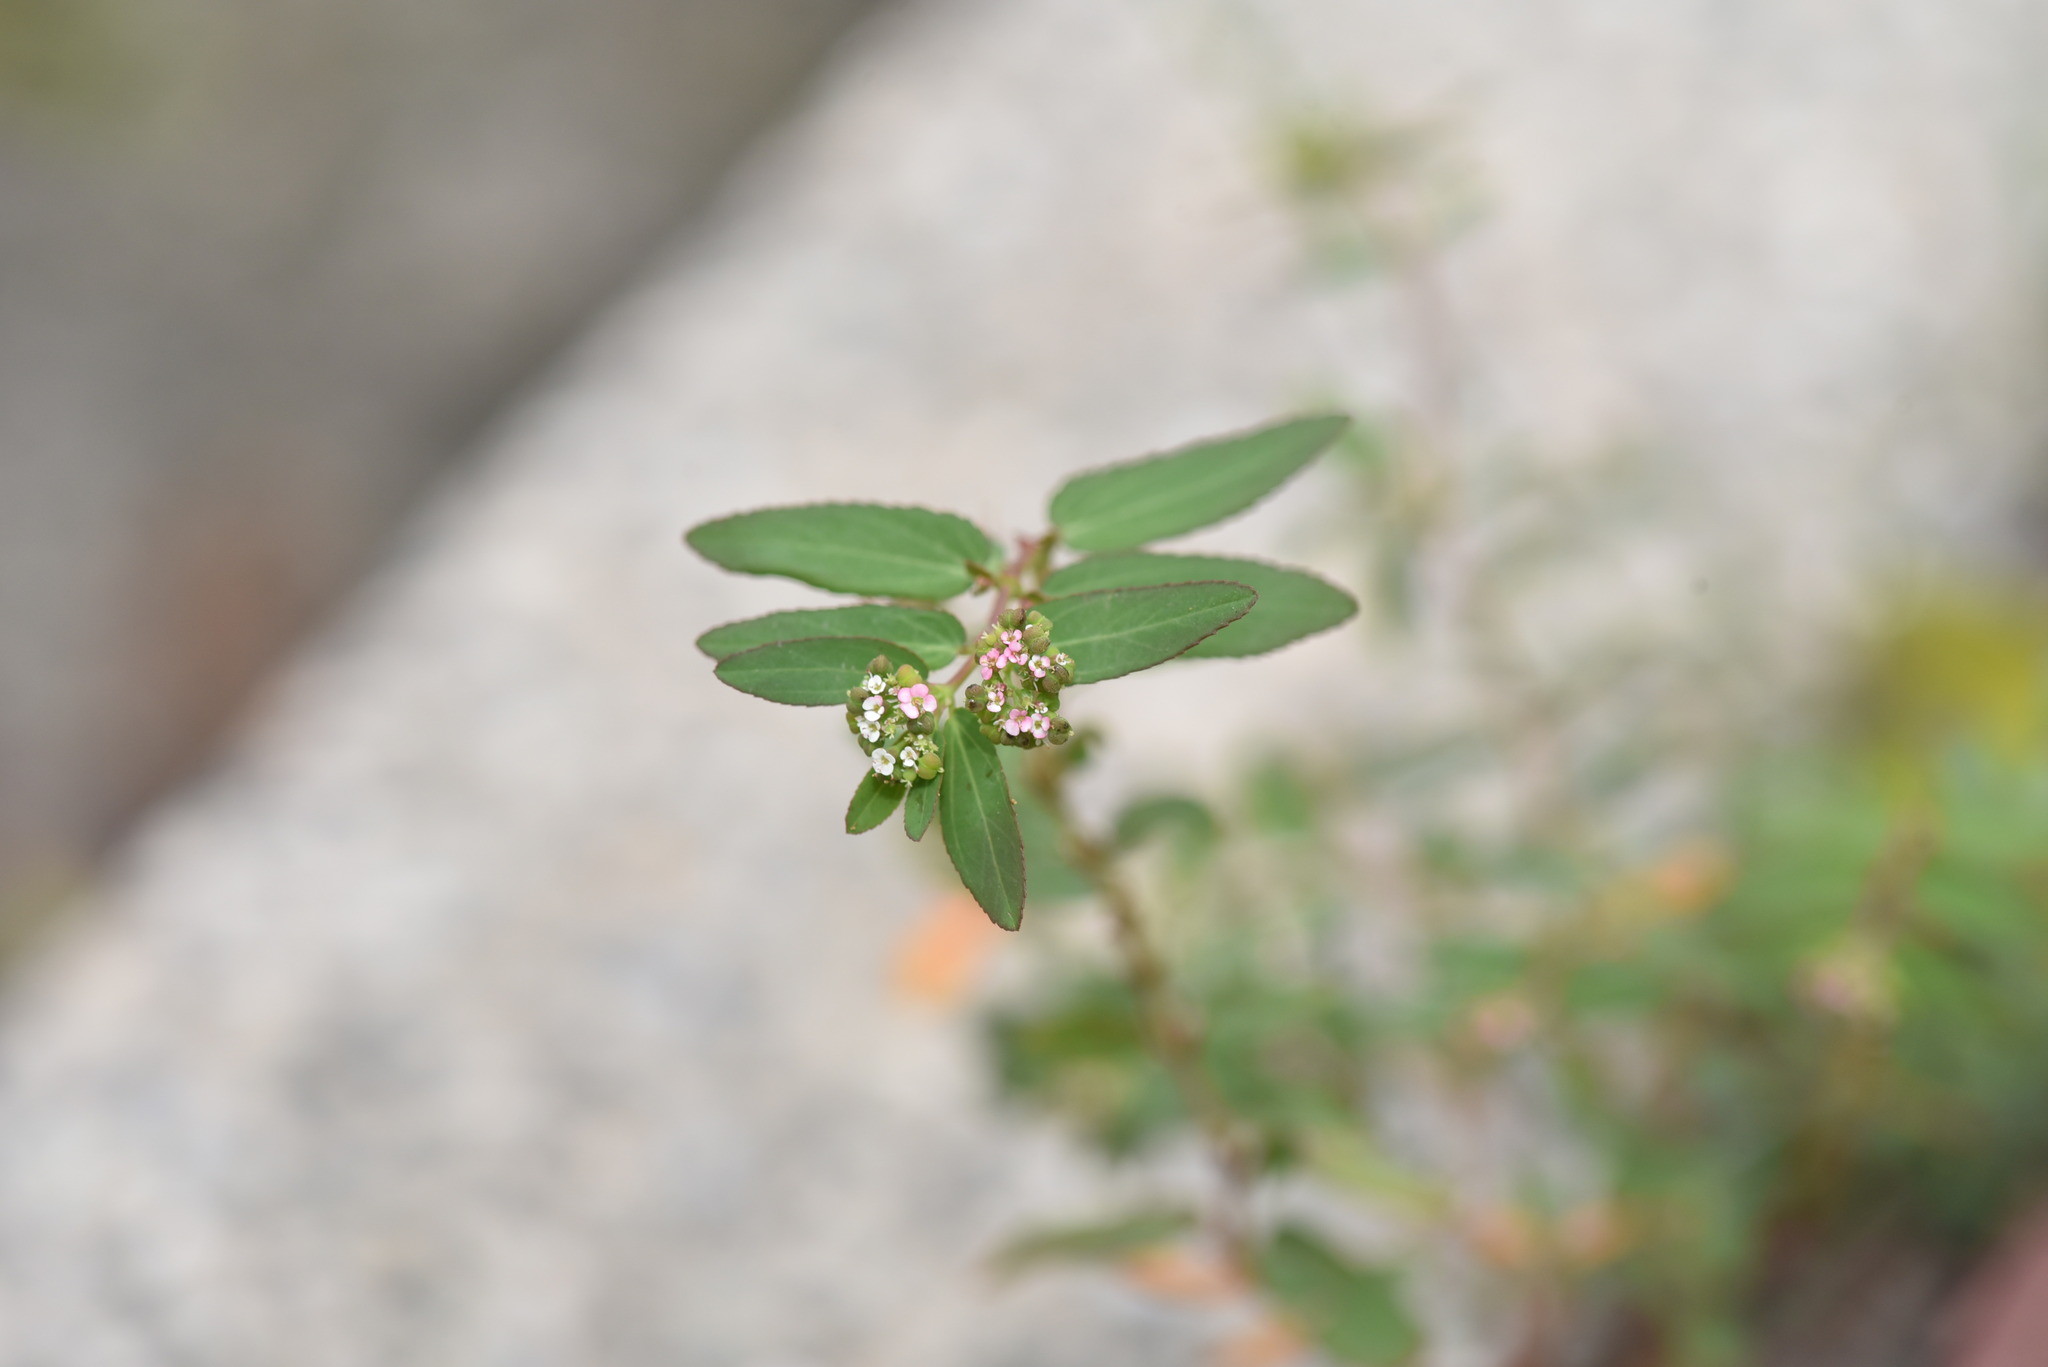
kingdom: Plantae
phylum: Tracheophyta
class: Magnoliopsida
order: Malpighiales
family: Euphorbiaceae
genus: Euphorbia
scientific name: Euphorbia hypericifolia
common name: Graceful sandmat
